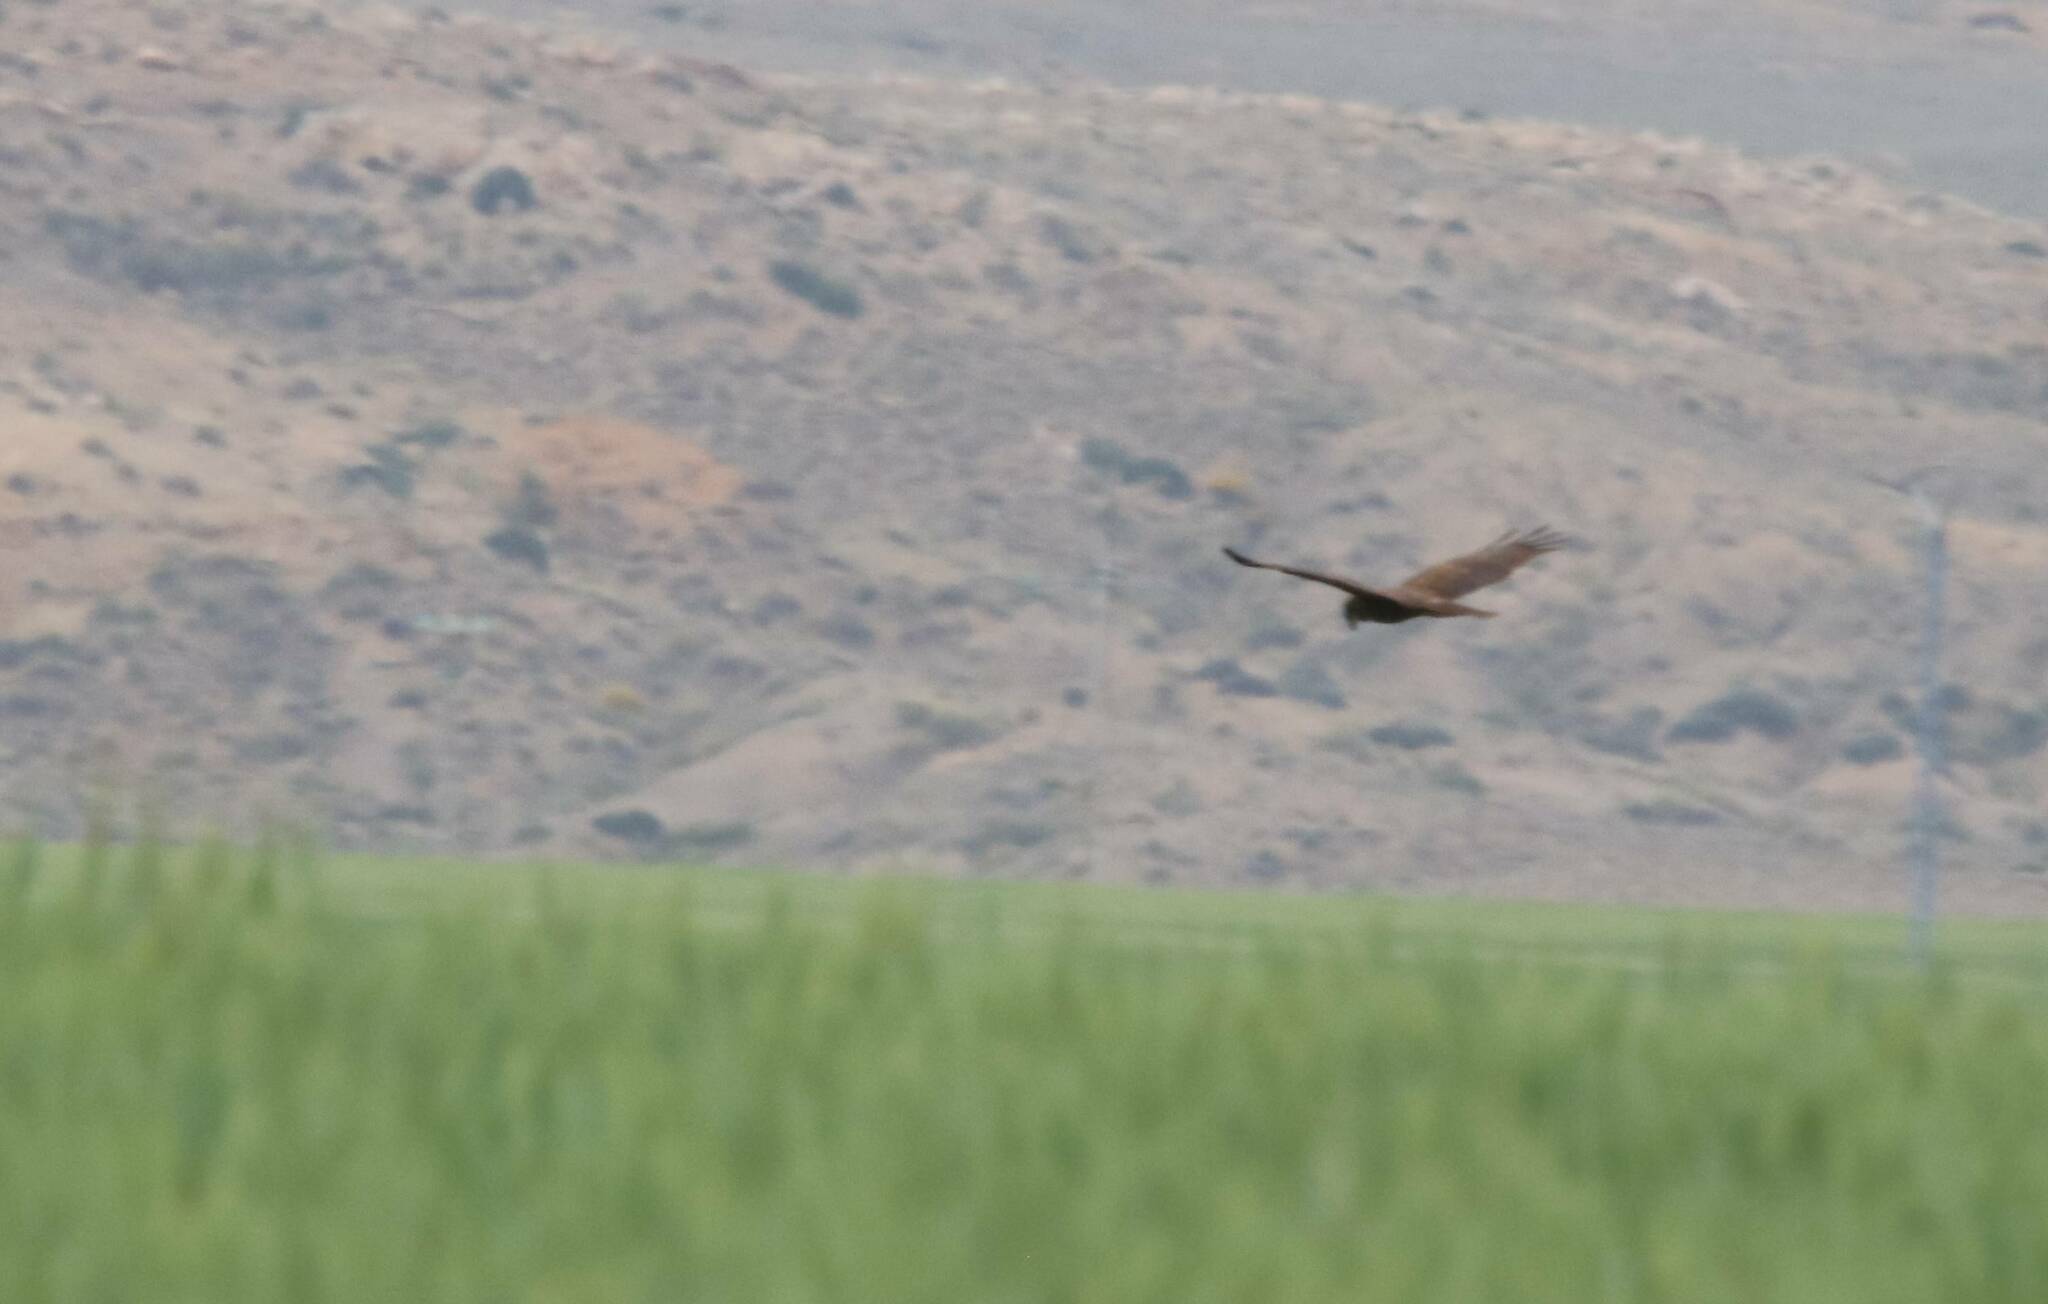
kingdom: Animalia
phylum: Chordata
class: Aves
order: Accipitriformes
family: Accipitridae
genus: Circus
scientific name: Circus aeruginosus
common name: Western marsh harrier
